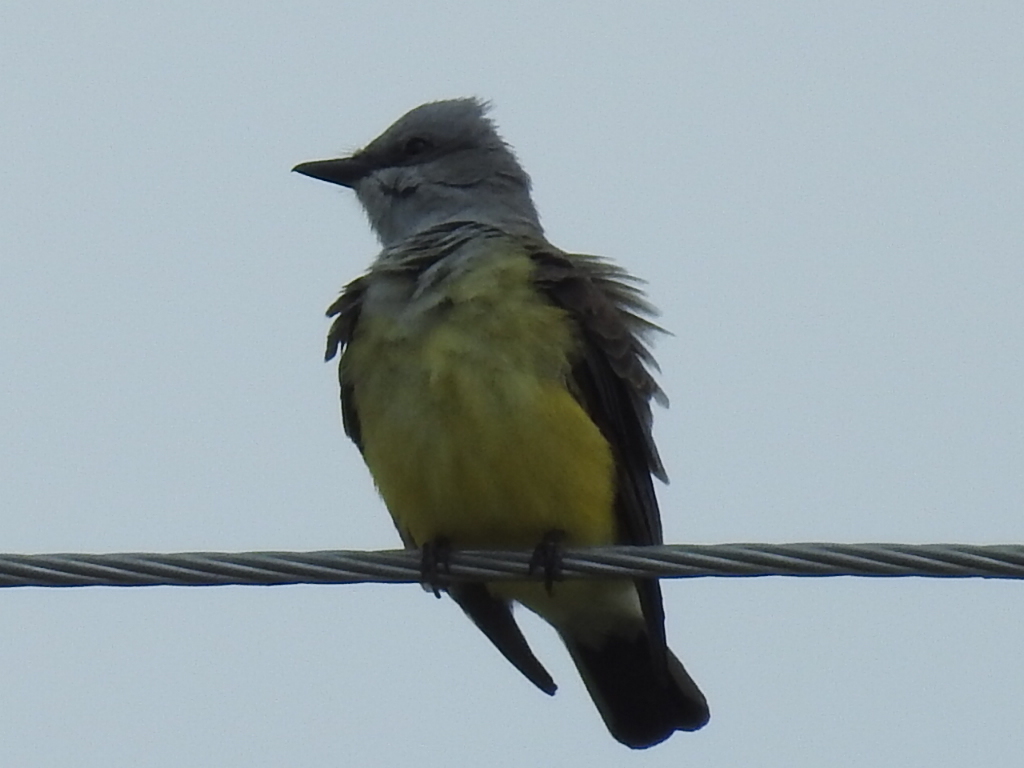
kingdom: Animalia
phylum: Chordata
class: Aves
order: Passeriformes
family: Tyrannidae
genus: Tyrannus
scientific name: Tyrannus verticalis
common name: Western kingbird
